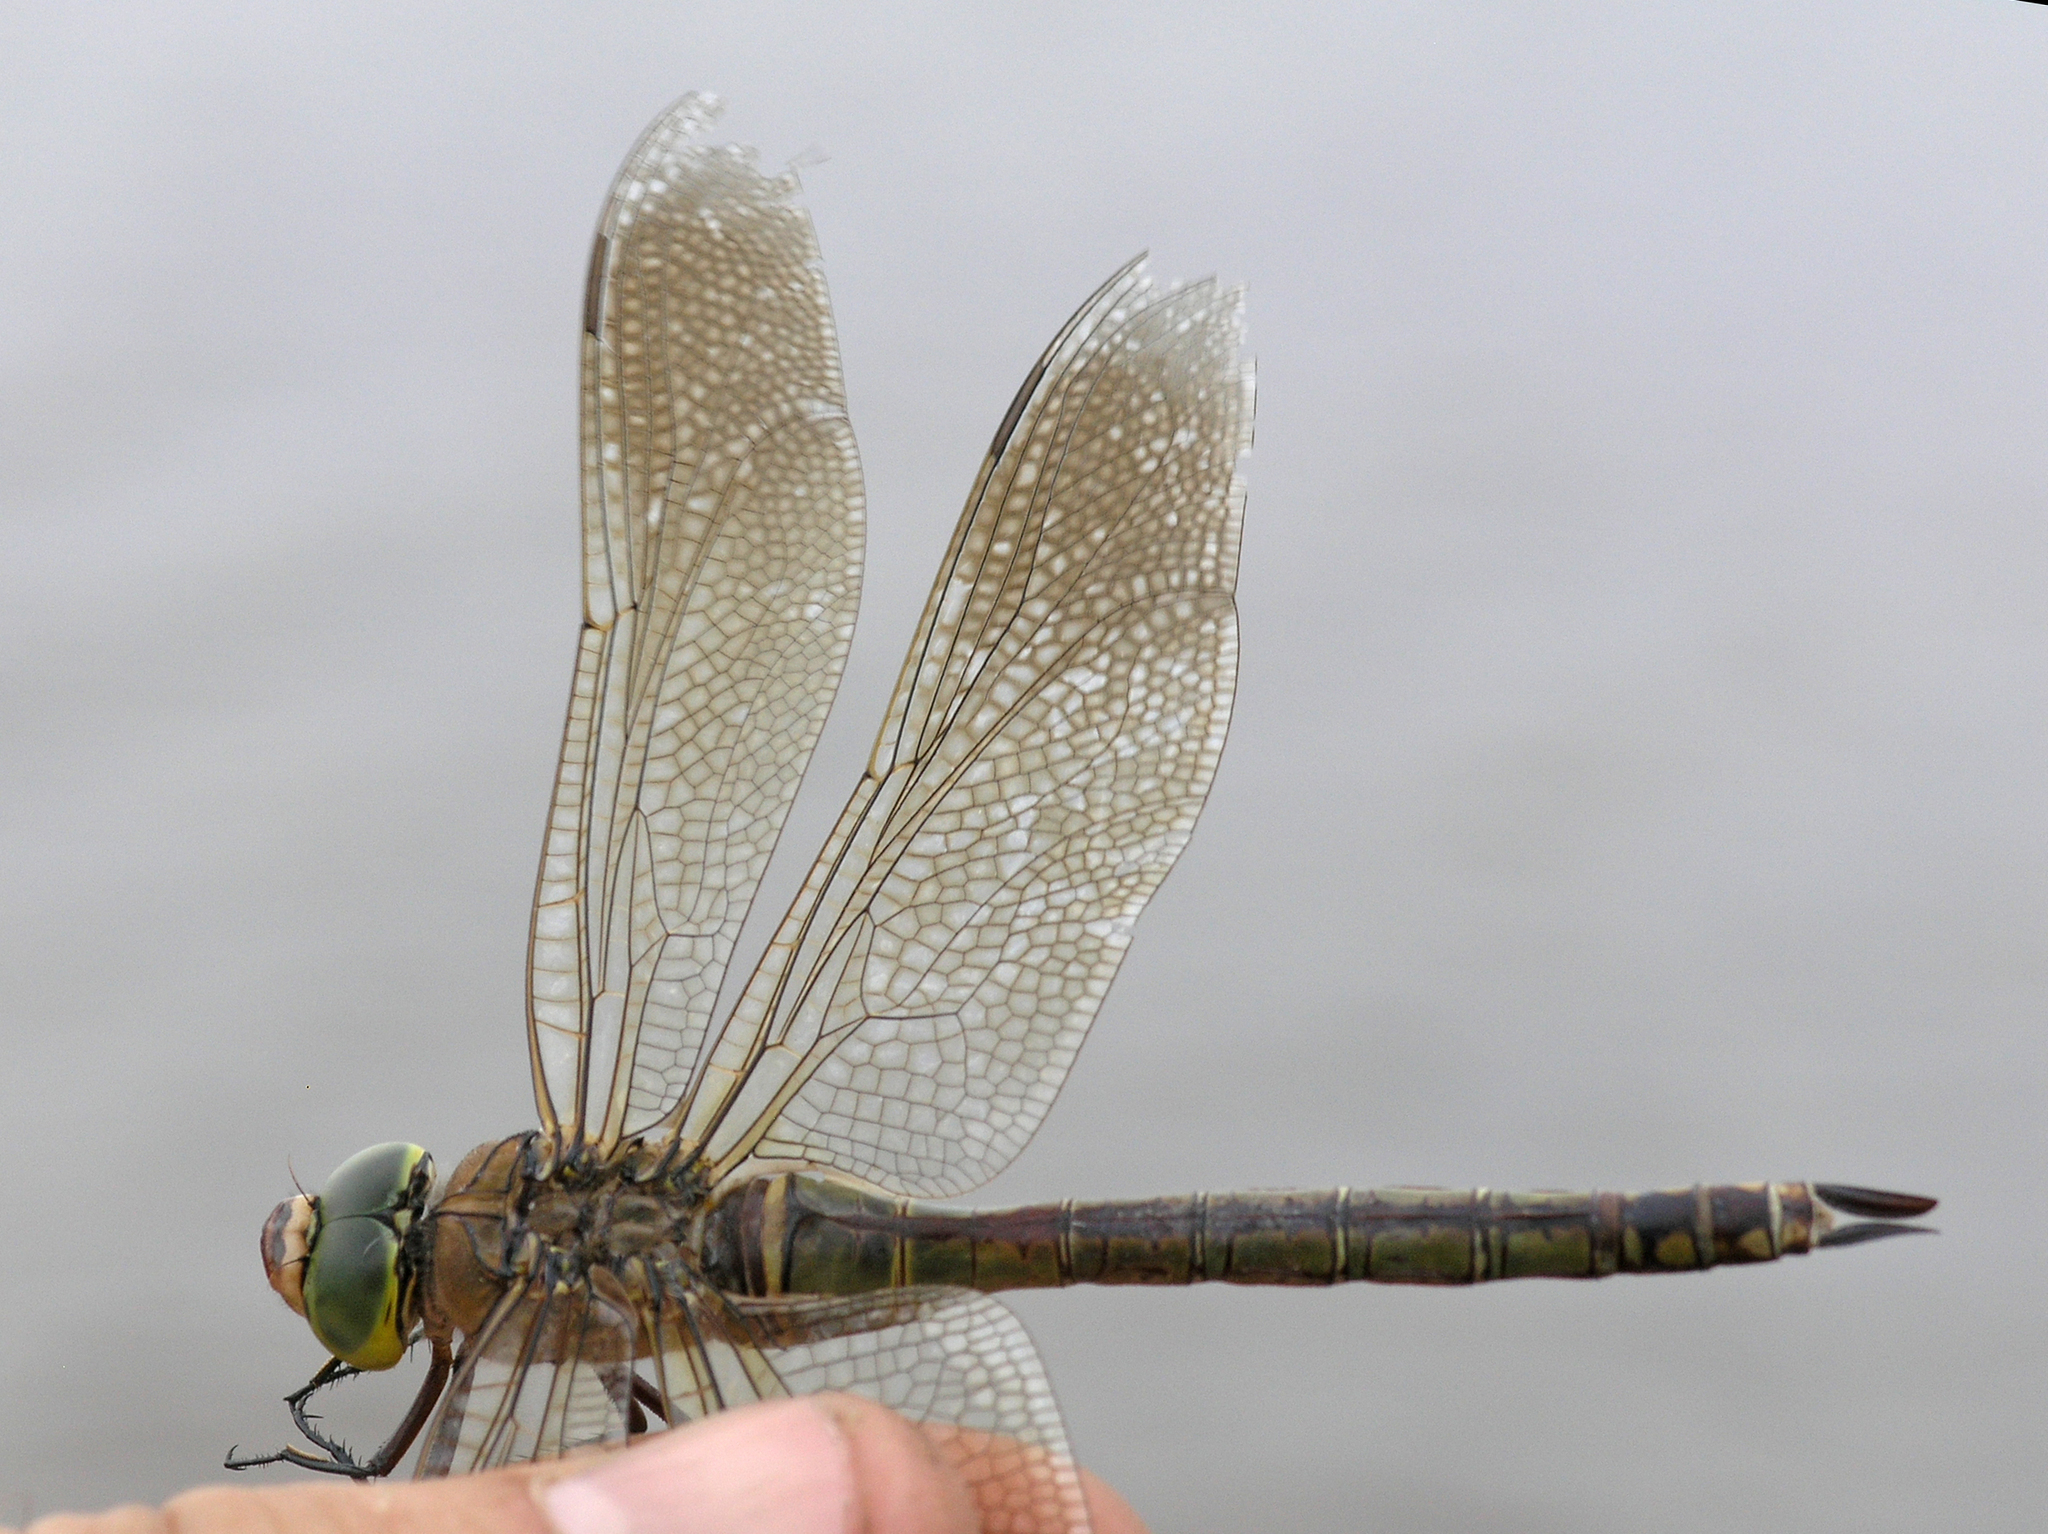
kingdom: Animalia
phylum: Arthropoda
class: Insecta
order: Odonata
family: Aeshnidae
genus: Anax
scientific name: Anax parthenope
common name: Lesser emperor
